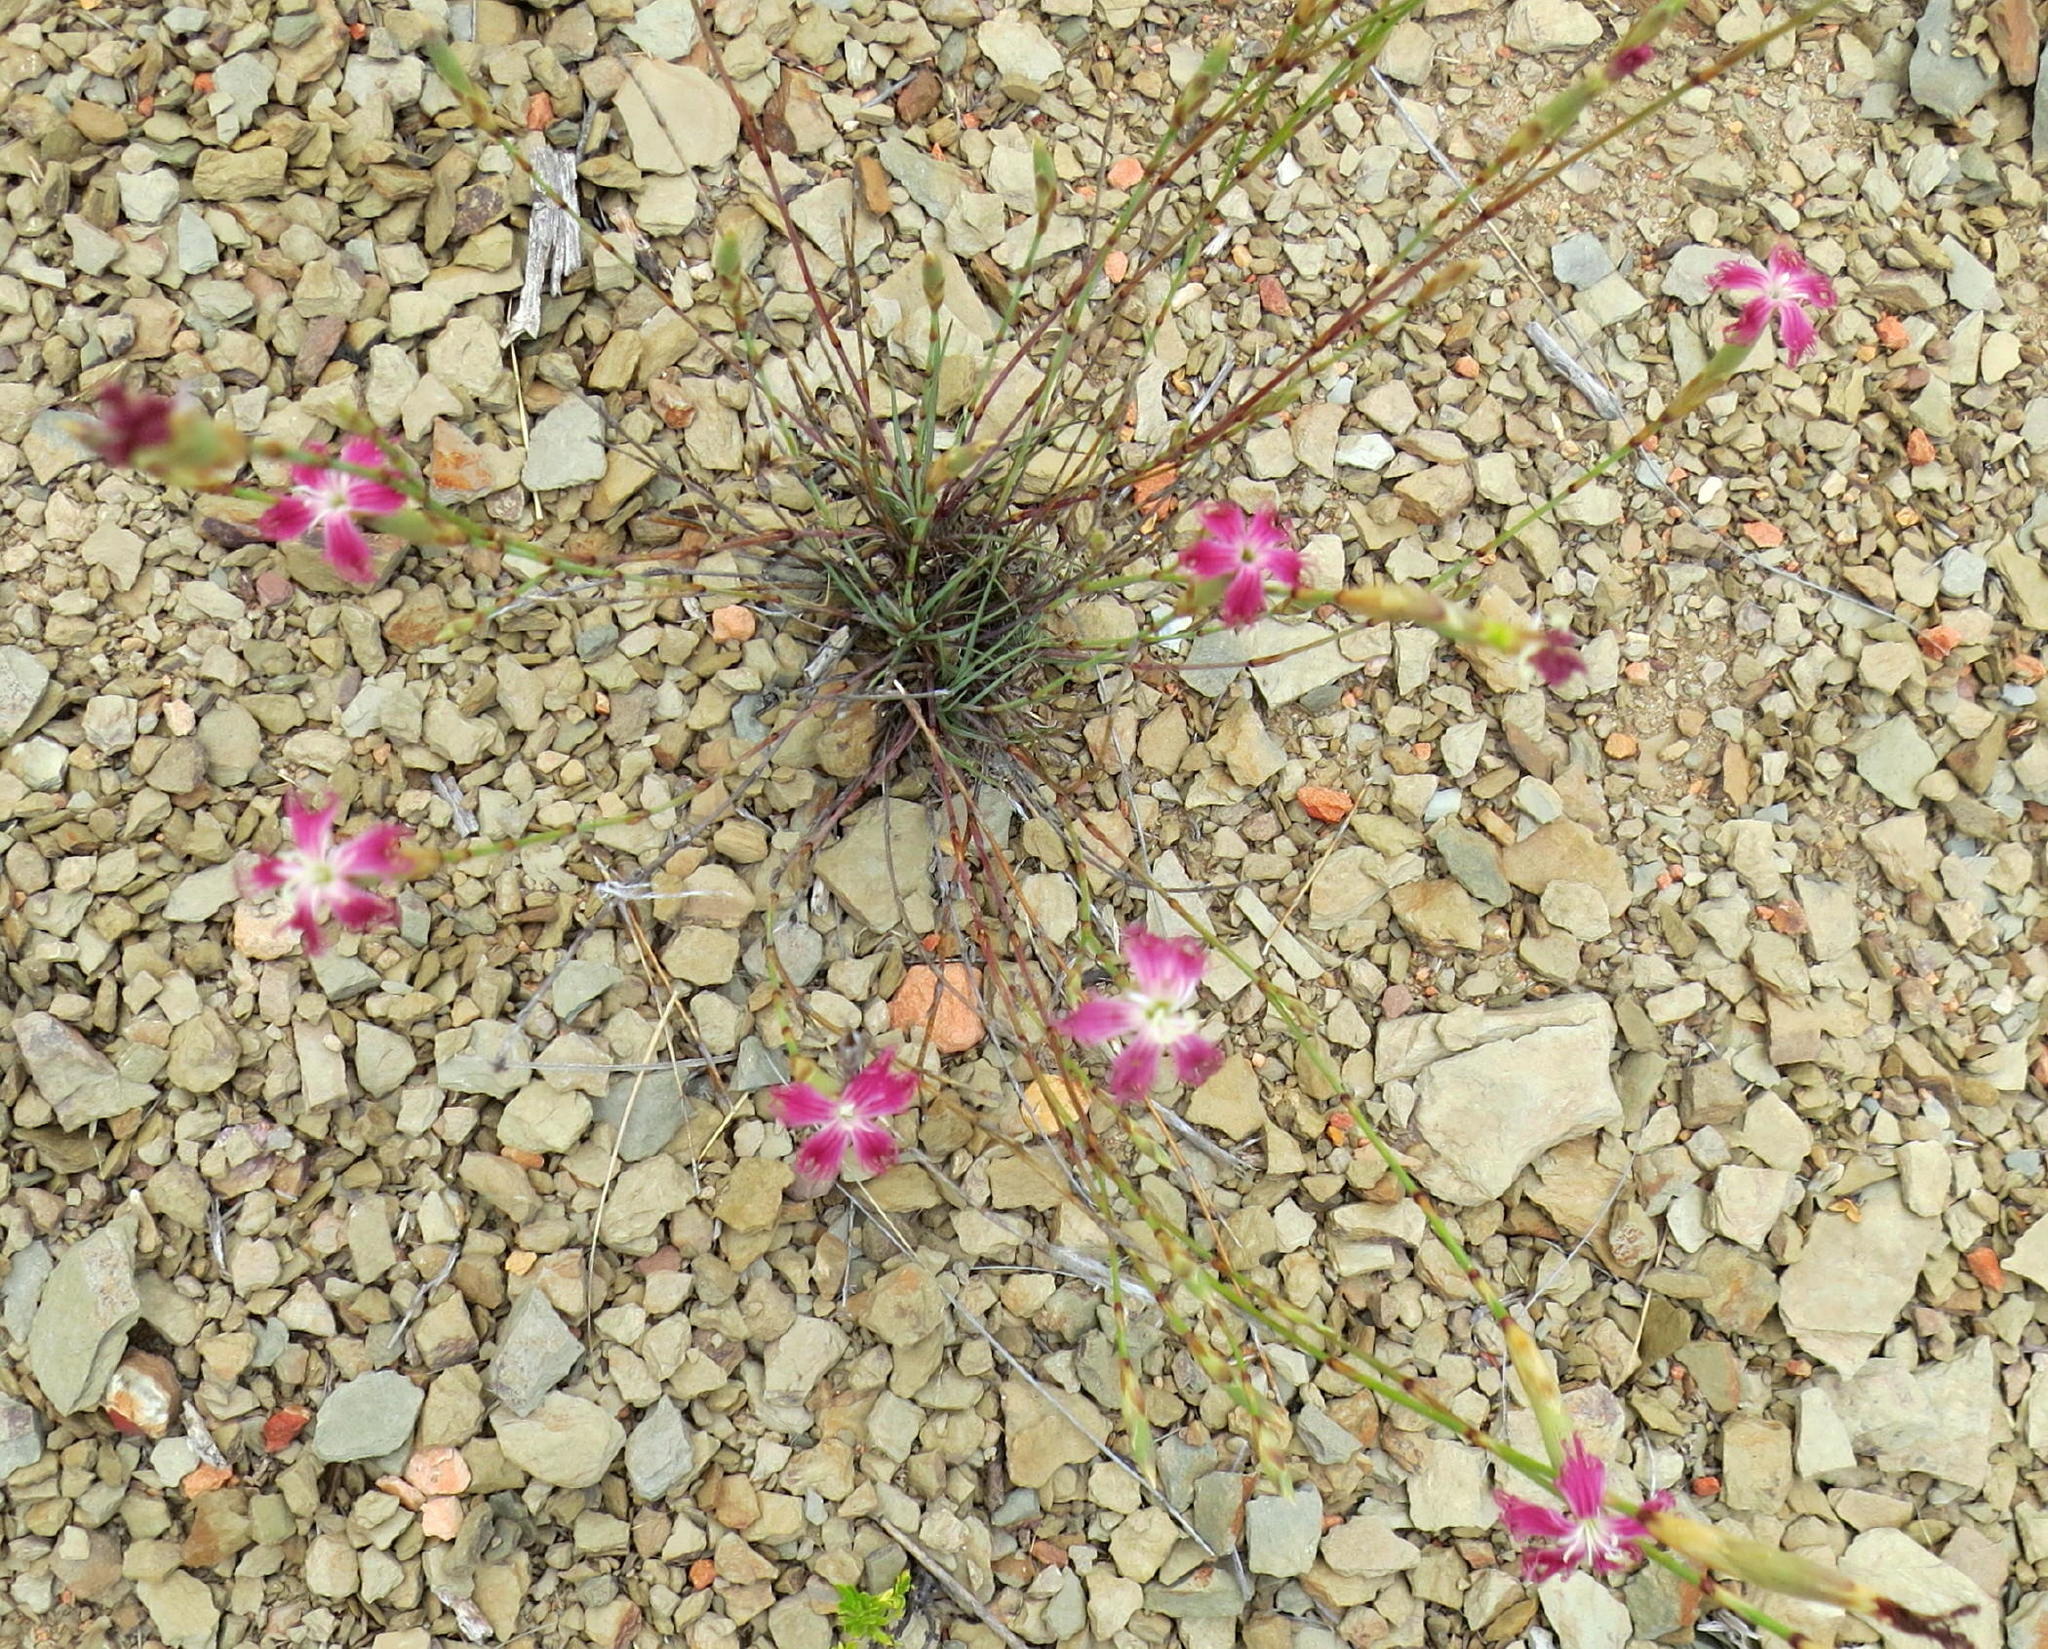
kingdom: Plantae
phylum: Tracheophyta
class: Magnoliopsida
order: Caryophyllales
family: Caryophyllaceae
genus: Dianthus
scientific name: Dianthus bolusii
